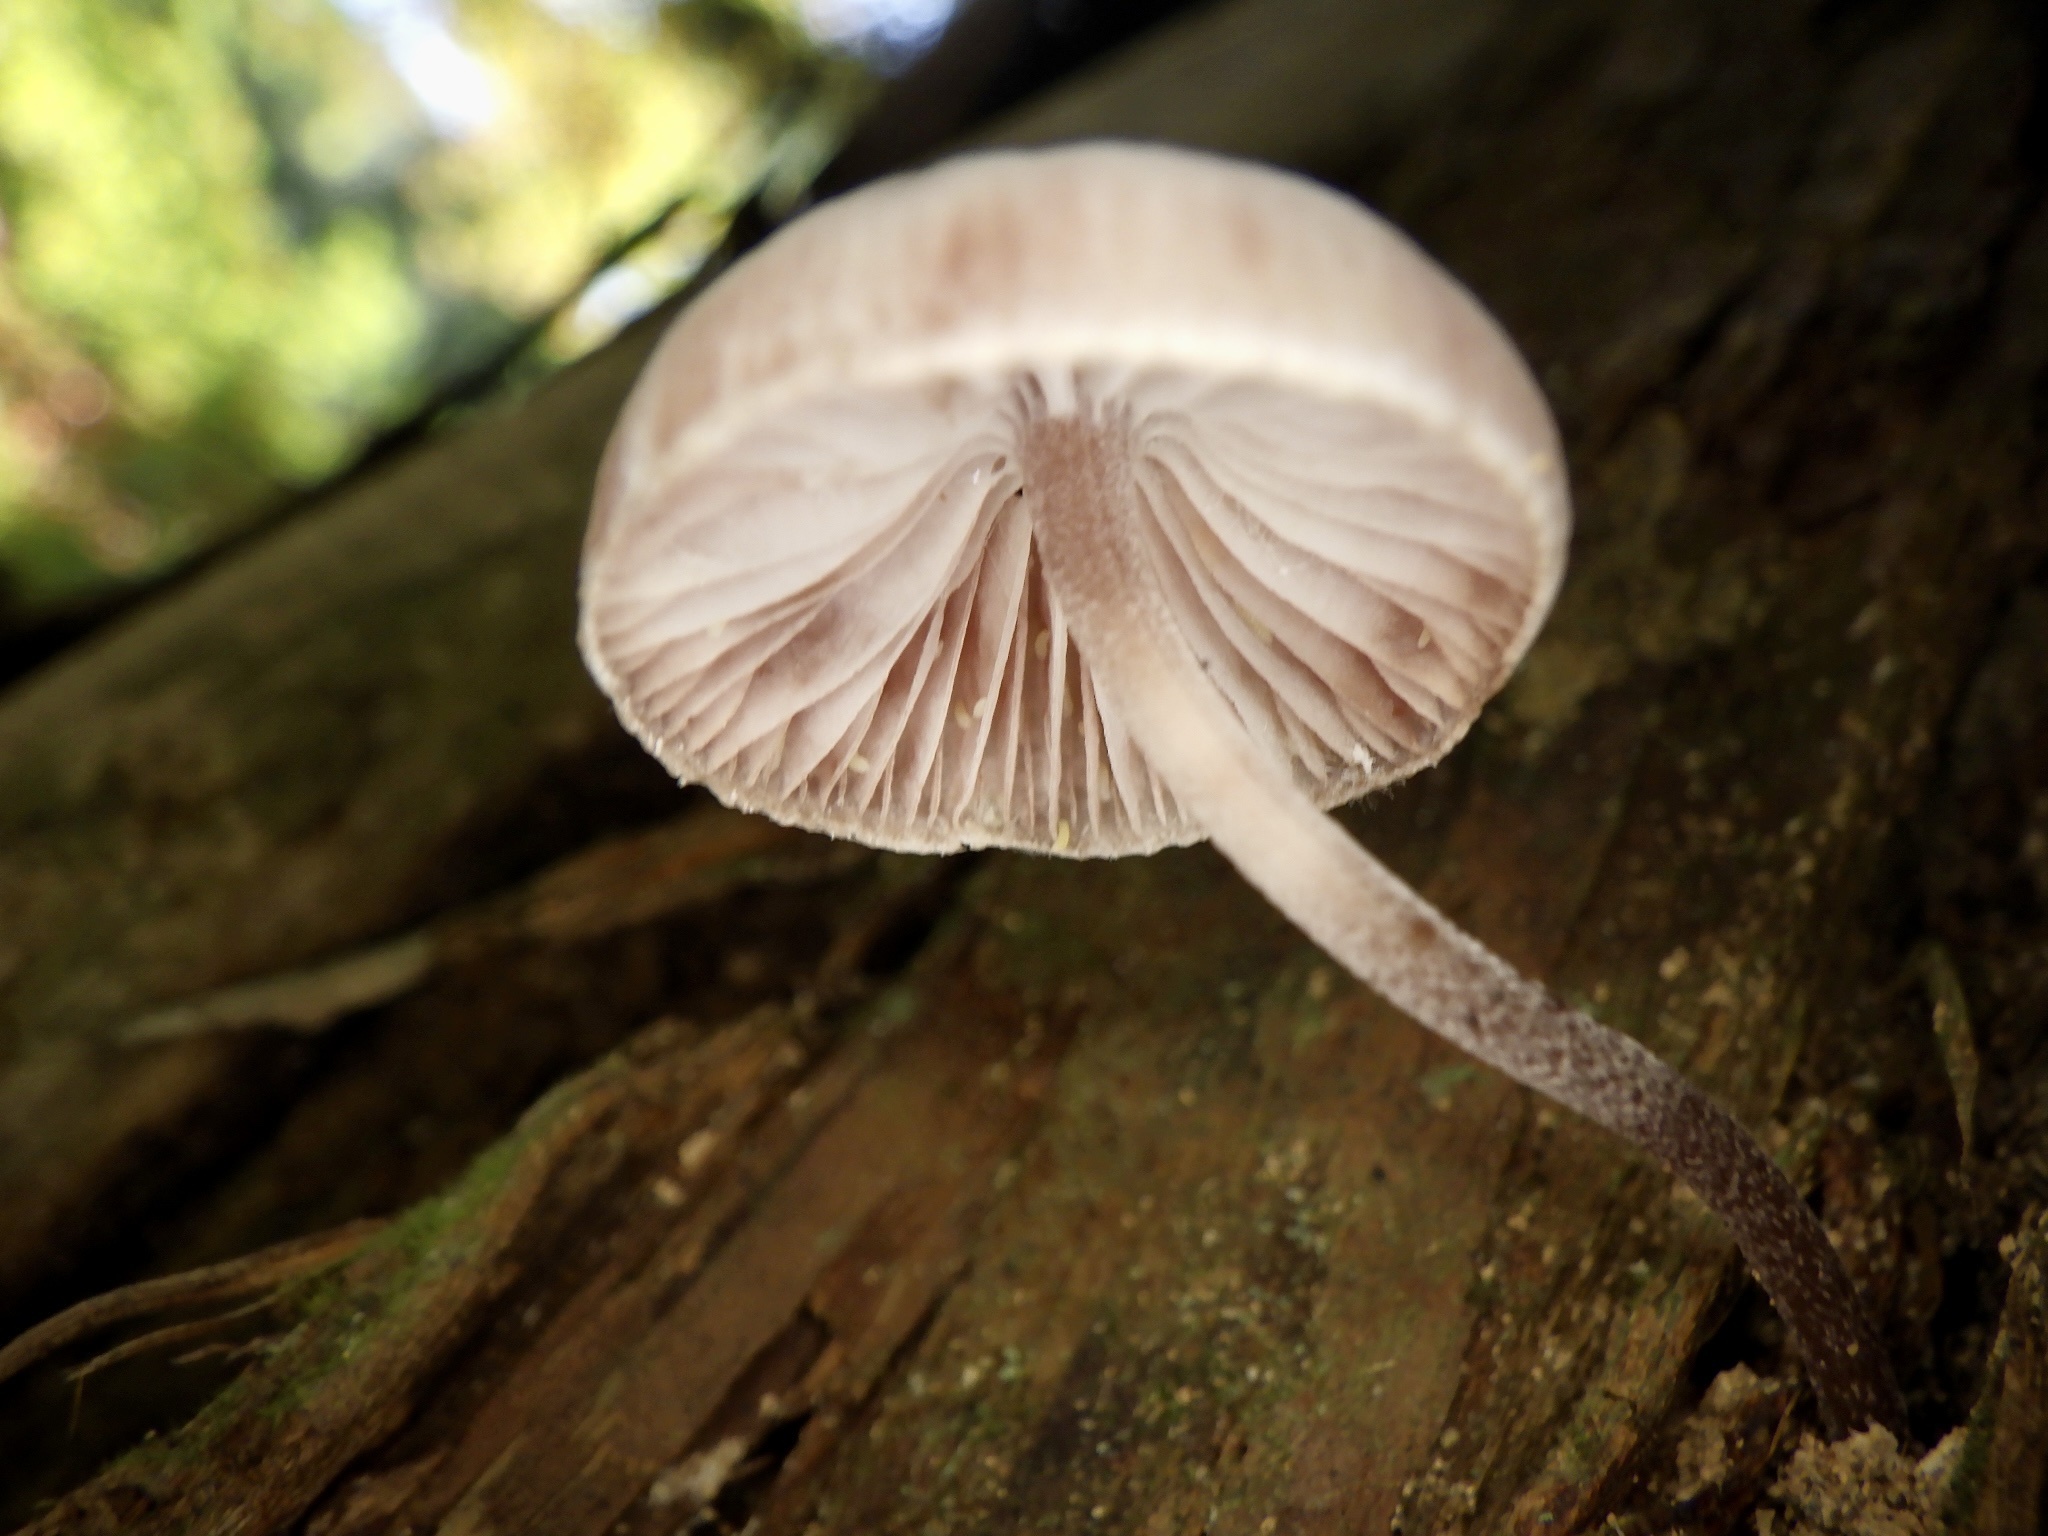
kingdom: Fungi
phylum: Basidiomycota
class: Agaricomycetes
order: Agaricales
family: Mycenaceae
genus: Mycena
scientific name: Mycena haematopus
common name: Burgundydrop bonnet
